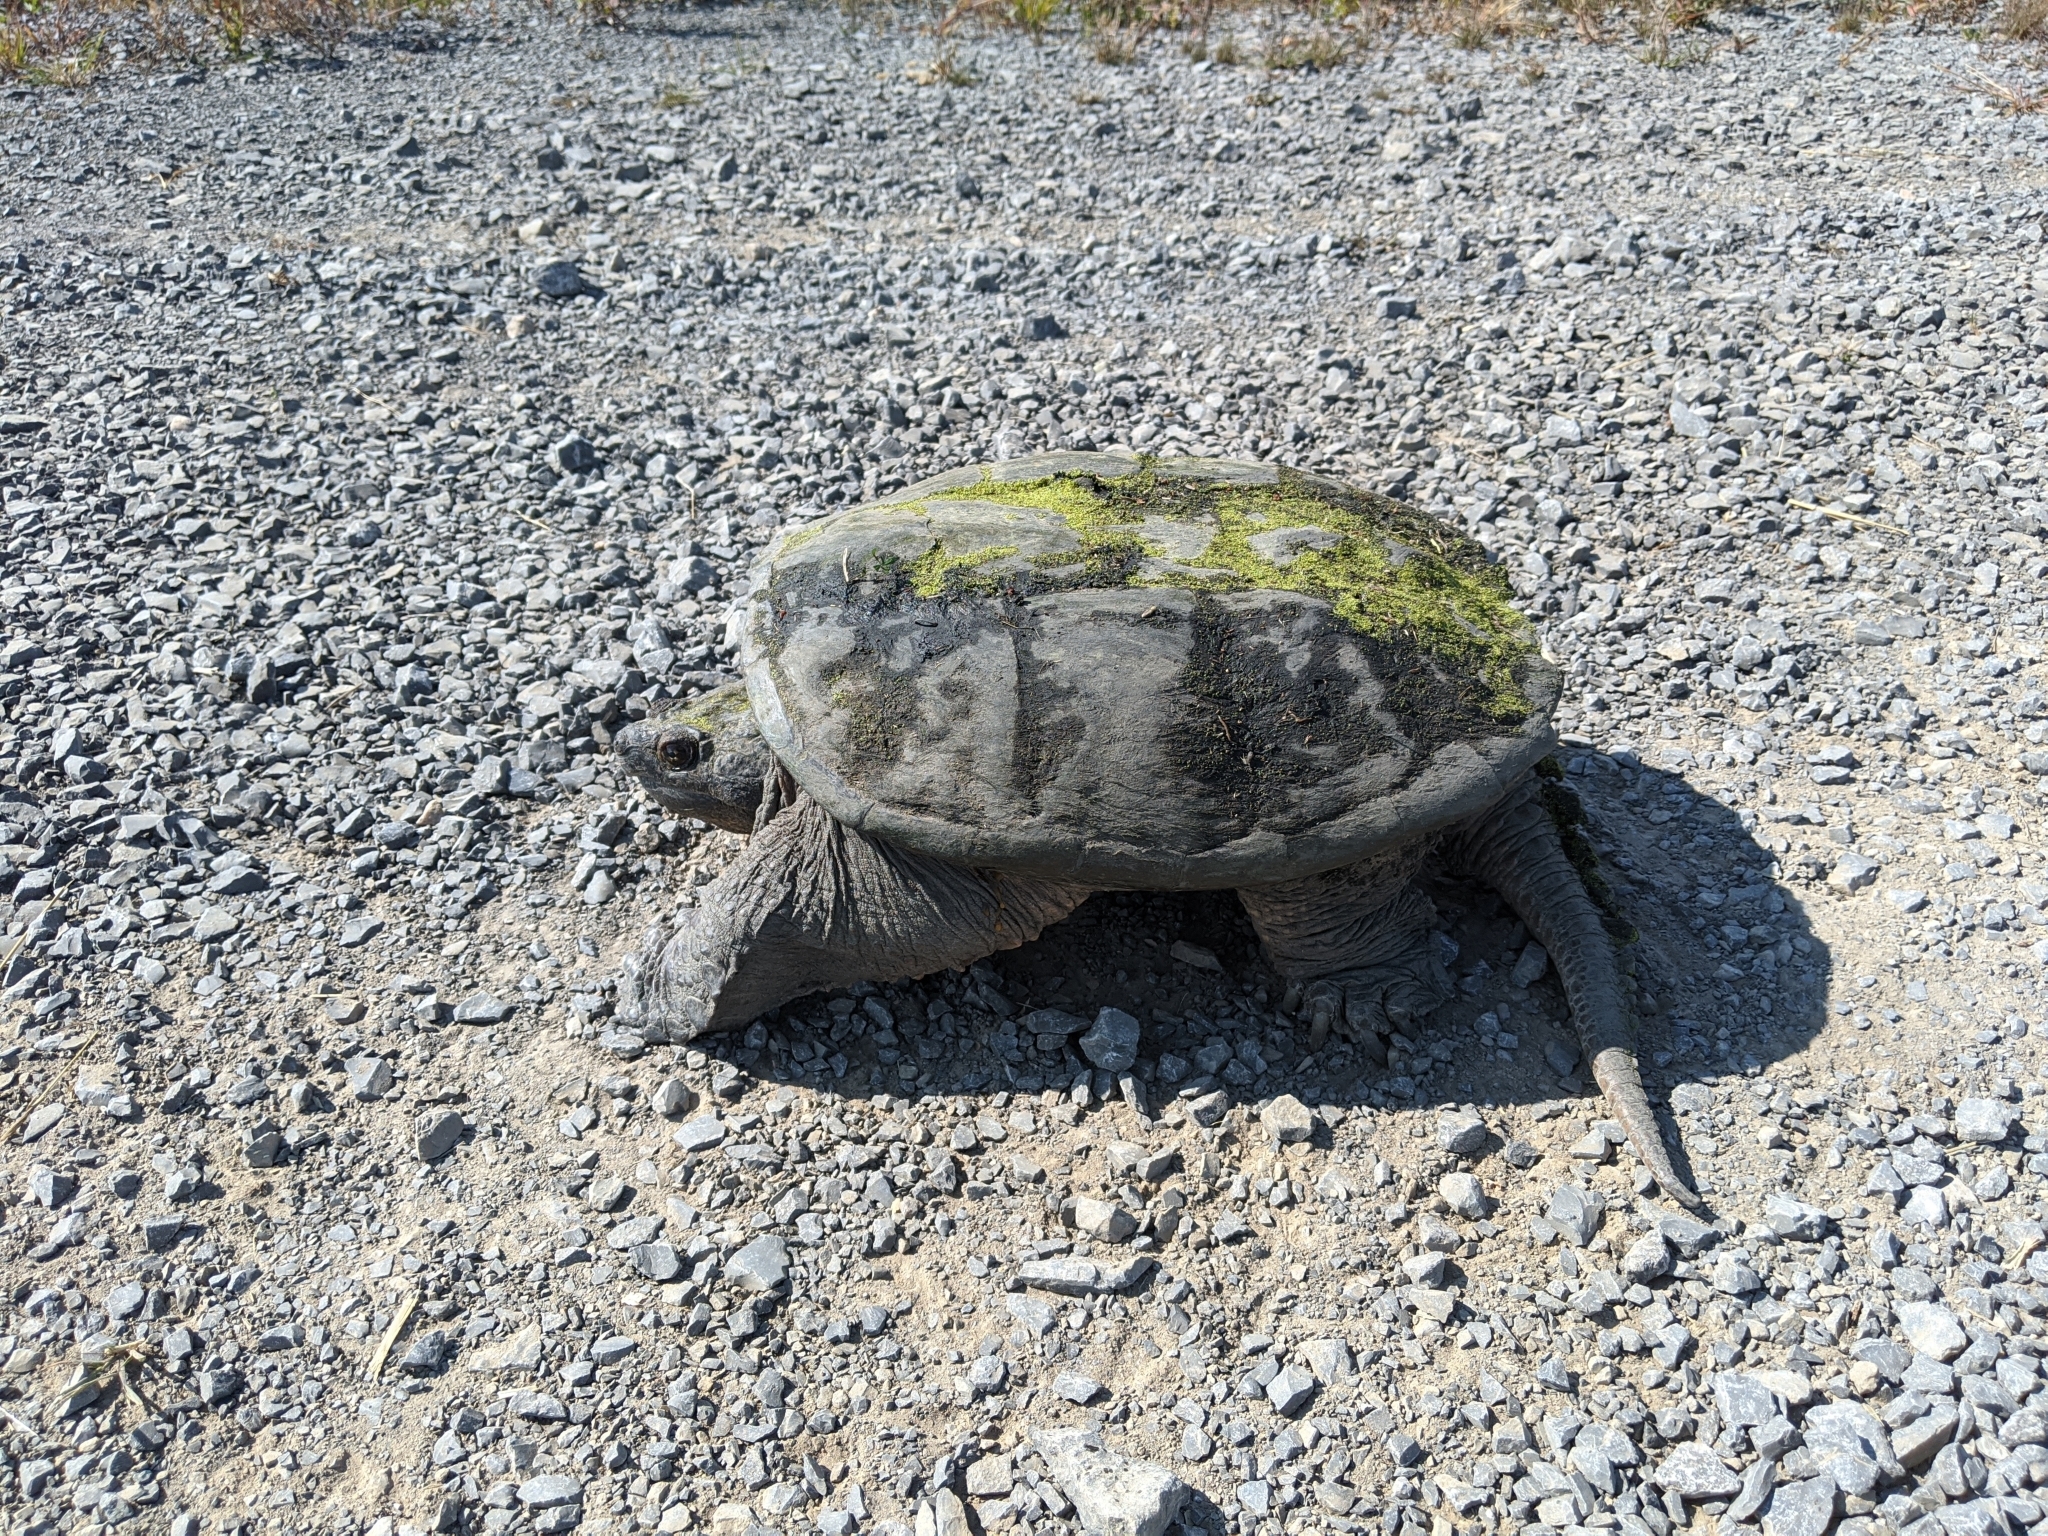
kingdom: Animalia
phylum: Chordata
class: Testudines
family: Chelydridae
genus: Chelydra
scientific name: Chelydra serpentina
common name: Common snapping turtle
